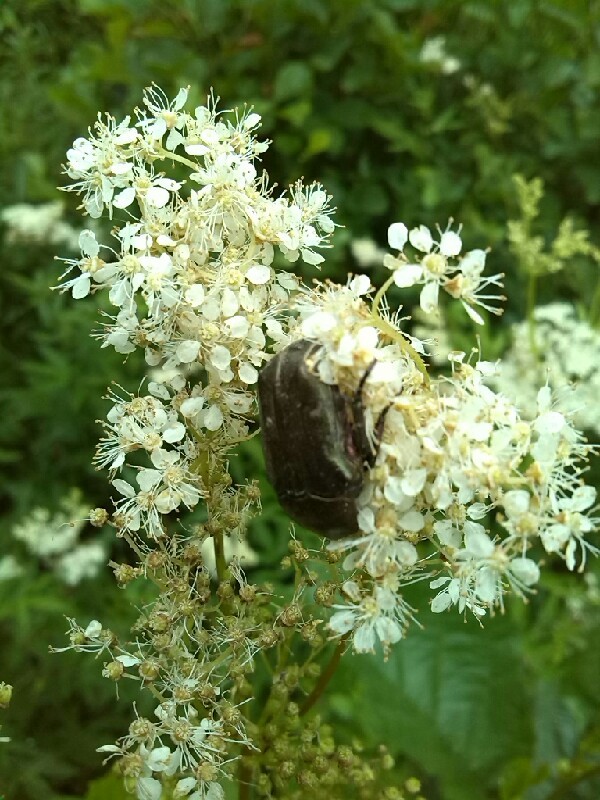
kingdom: Animalia
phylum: Arthropoda
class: Insecta
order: Coleoptera
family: Scarabaeidae
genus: Protaetia
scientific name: Protaetia cuprea
